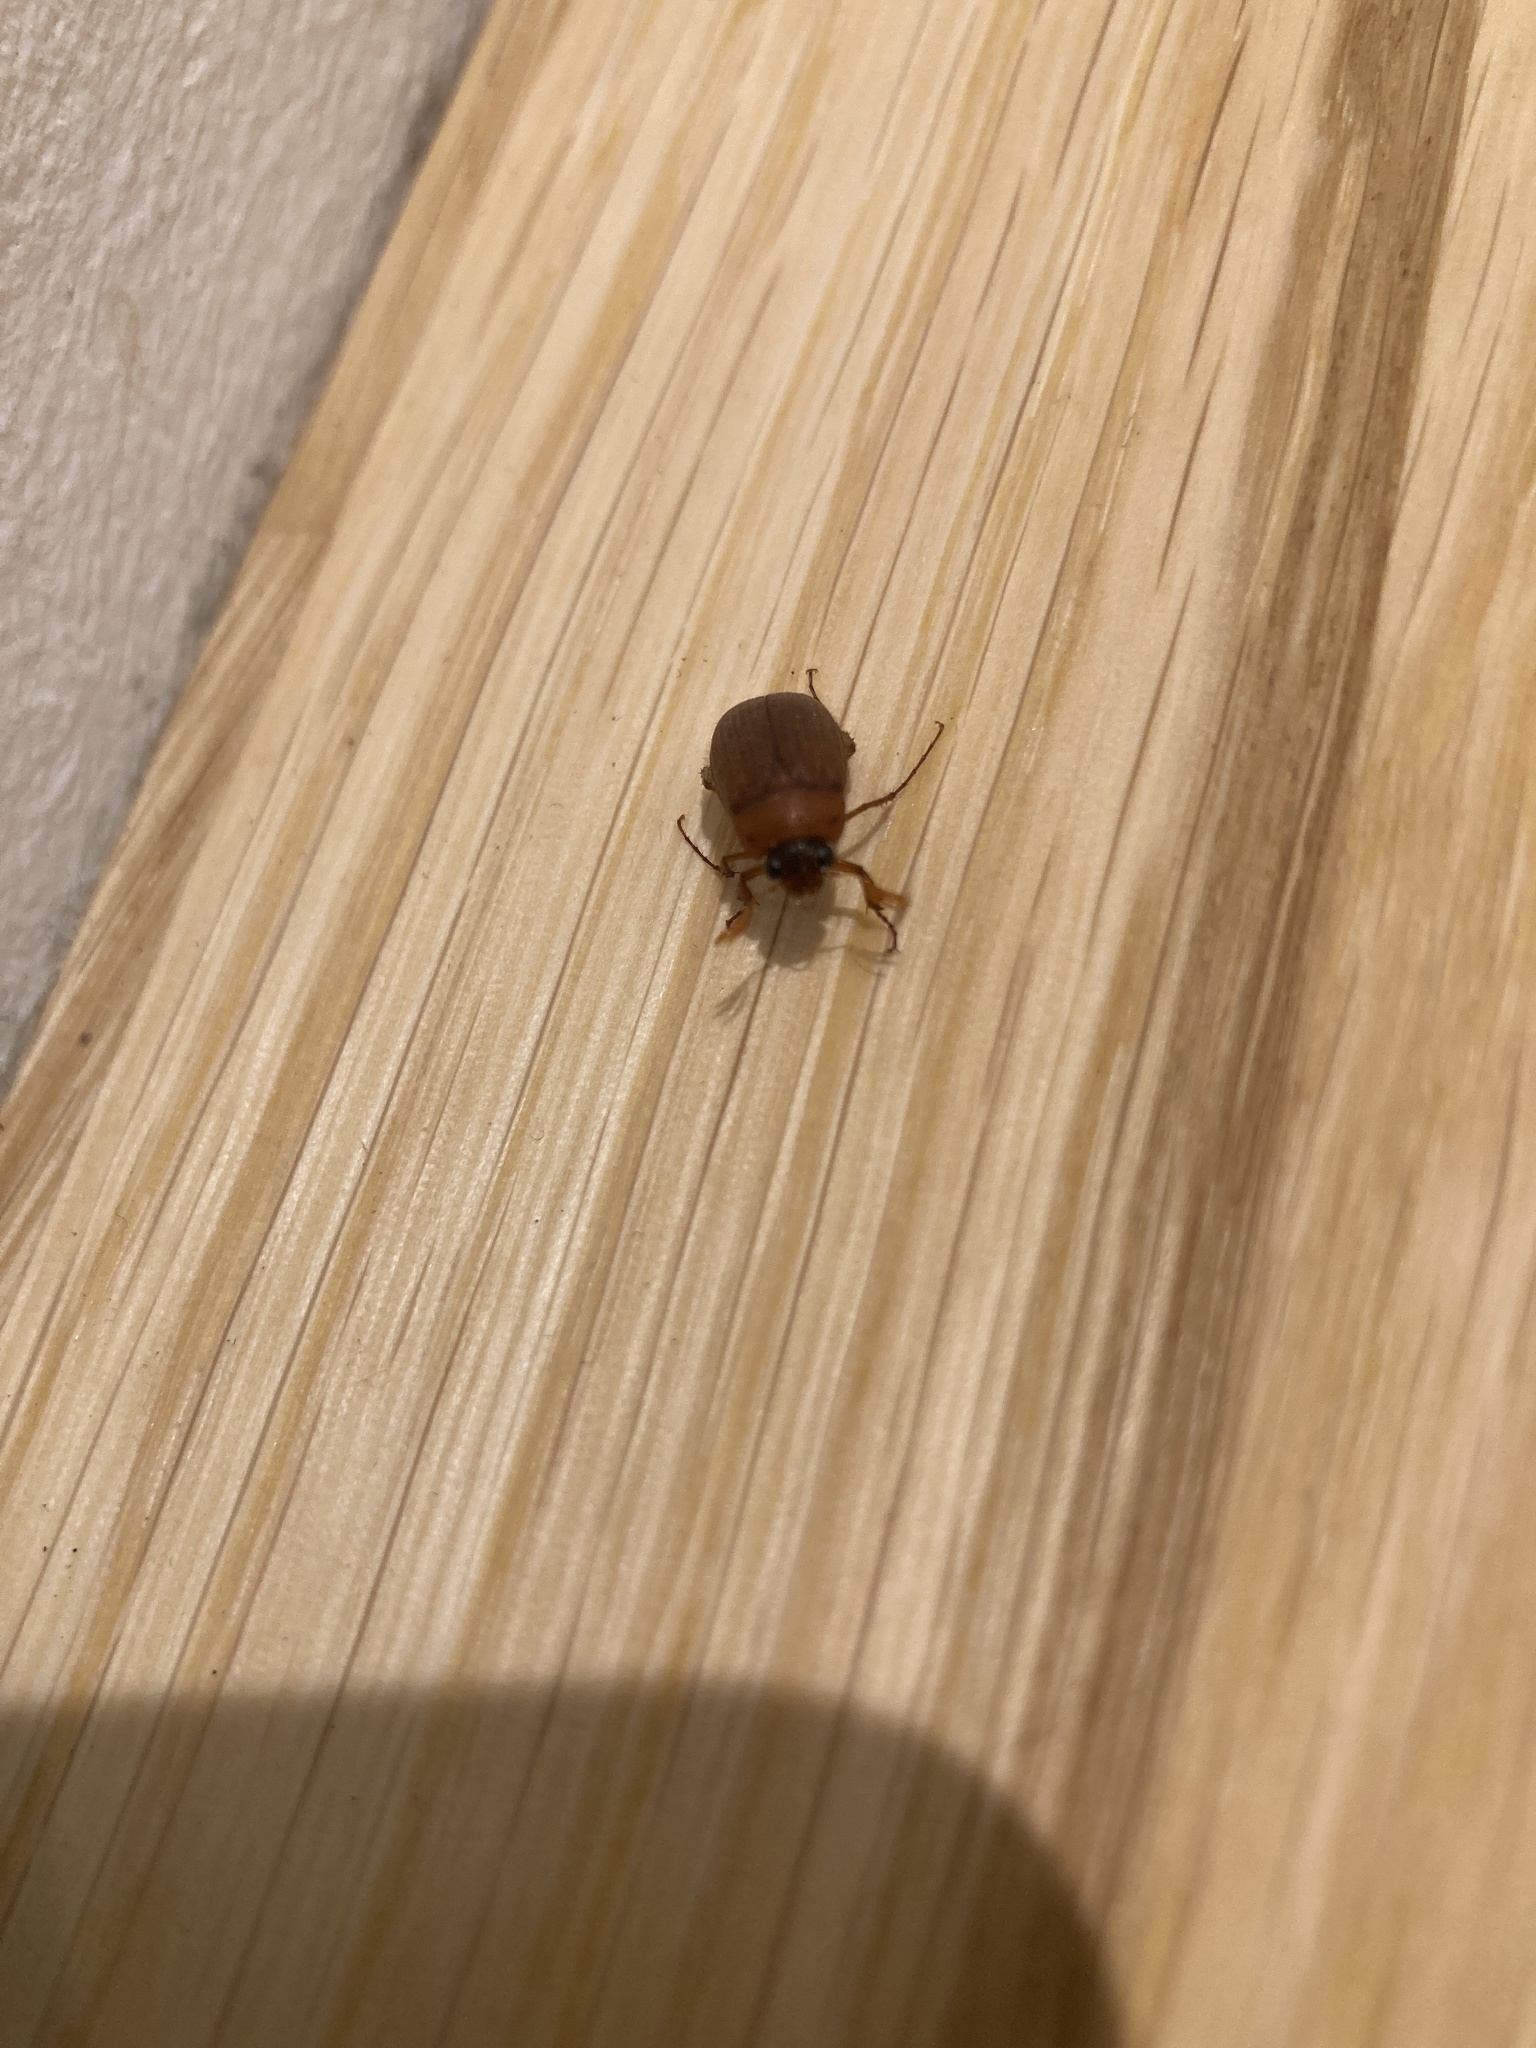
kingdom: Animalia
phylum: Arthropoda
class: Insecta
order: Coleoptera
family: Scarabaeidae
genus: Serica
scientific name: Serica brunnea
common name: Brown chafer
